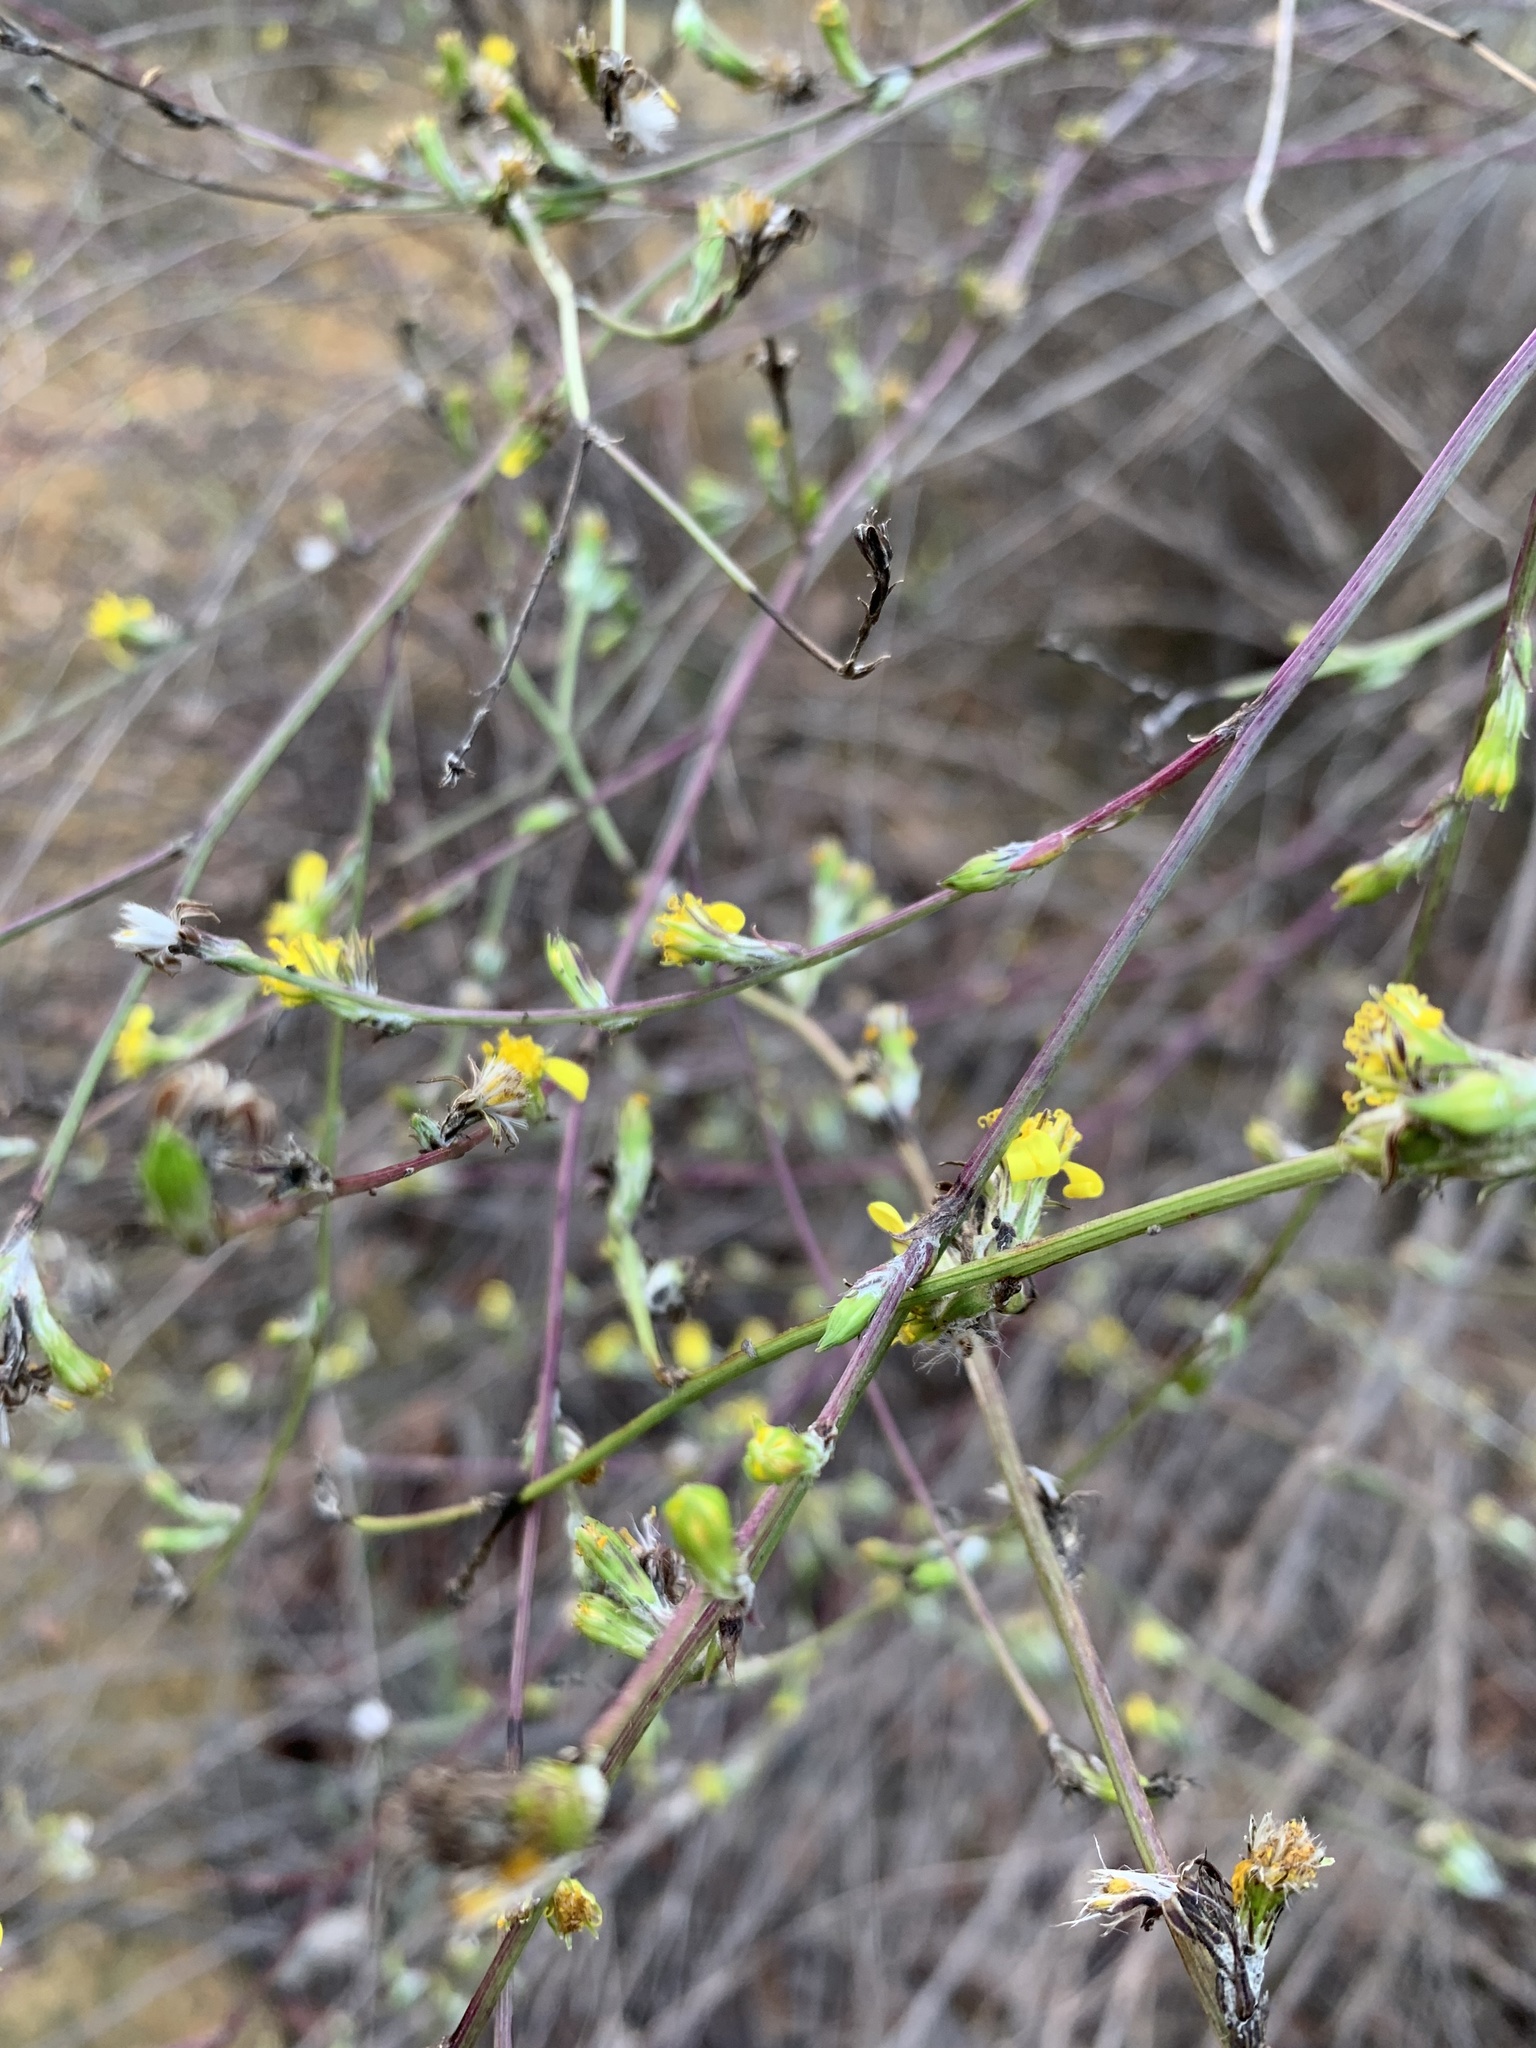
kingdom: Plantae
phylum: Tracheophyta
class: Magnoliopsida
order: Asterales
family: Asteraceae
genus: Senecio
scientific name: Senecio pubigerus
